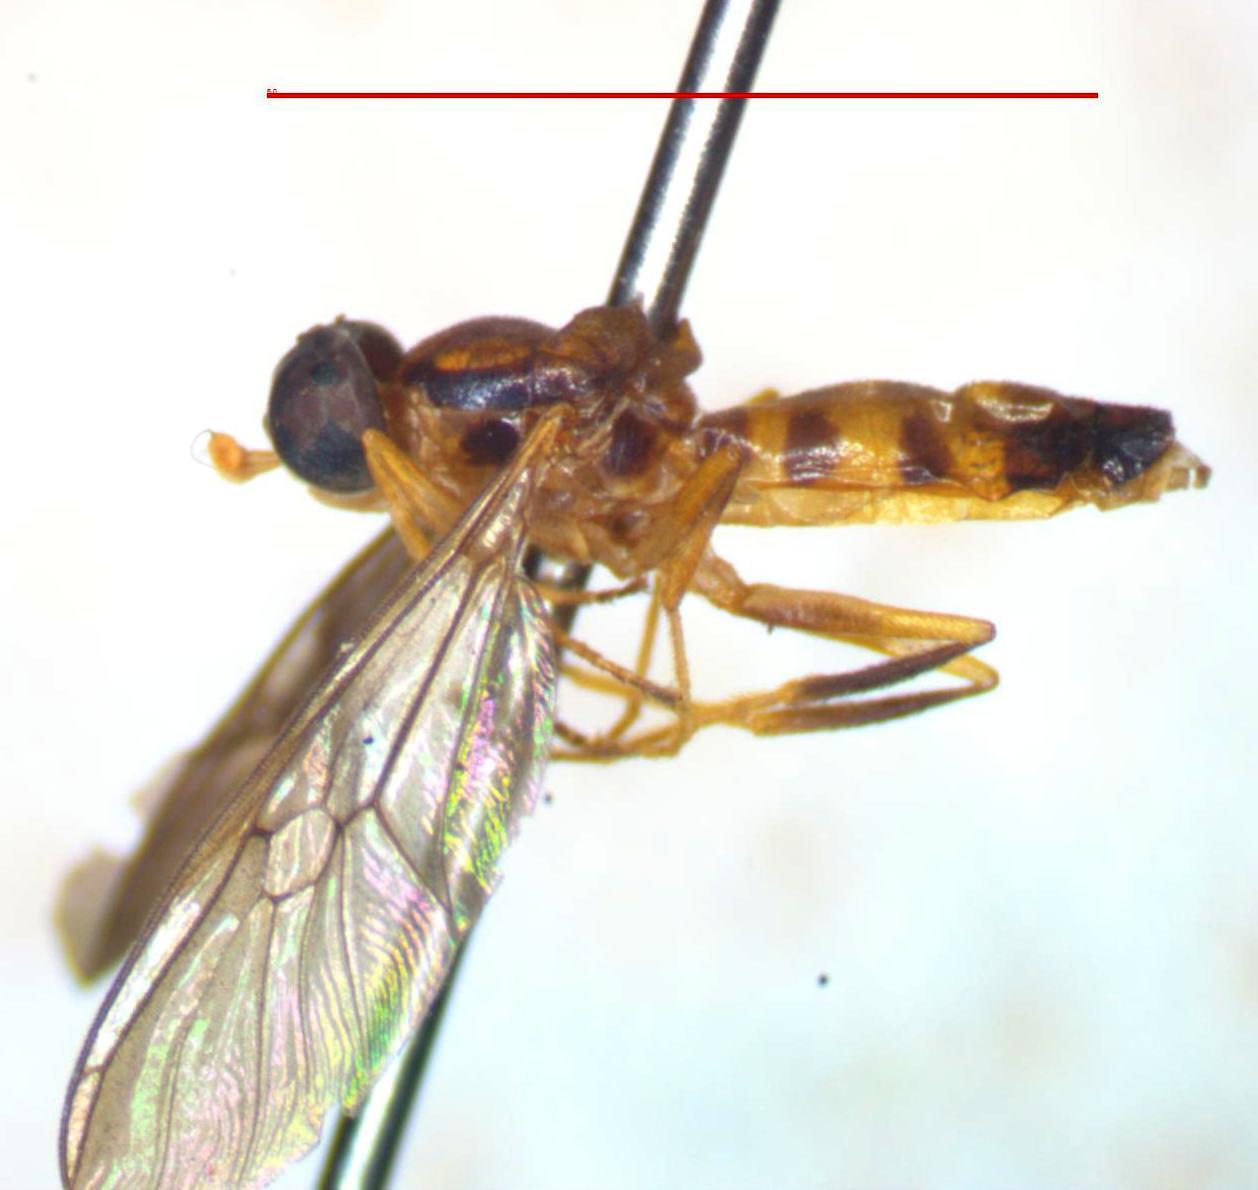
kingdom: Animalia
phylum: Arthropoda
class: Insecta
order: Diptera
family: Stratiomyidae
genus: Merosargus
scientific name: Merosargus rotundatus
